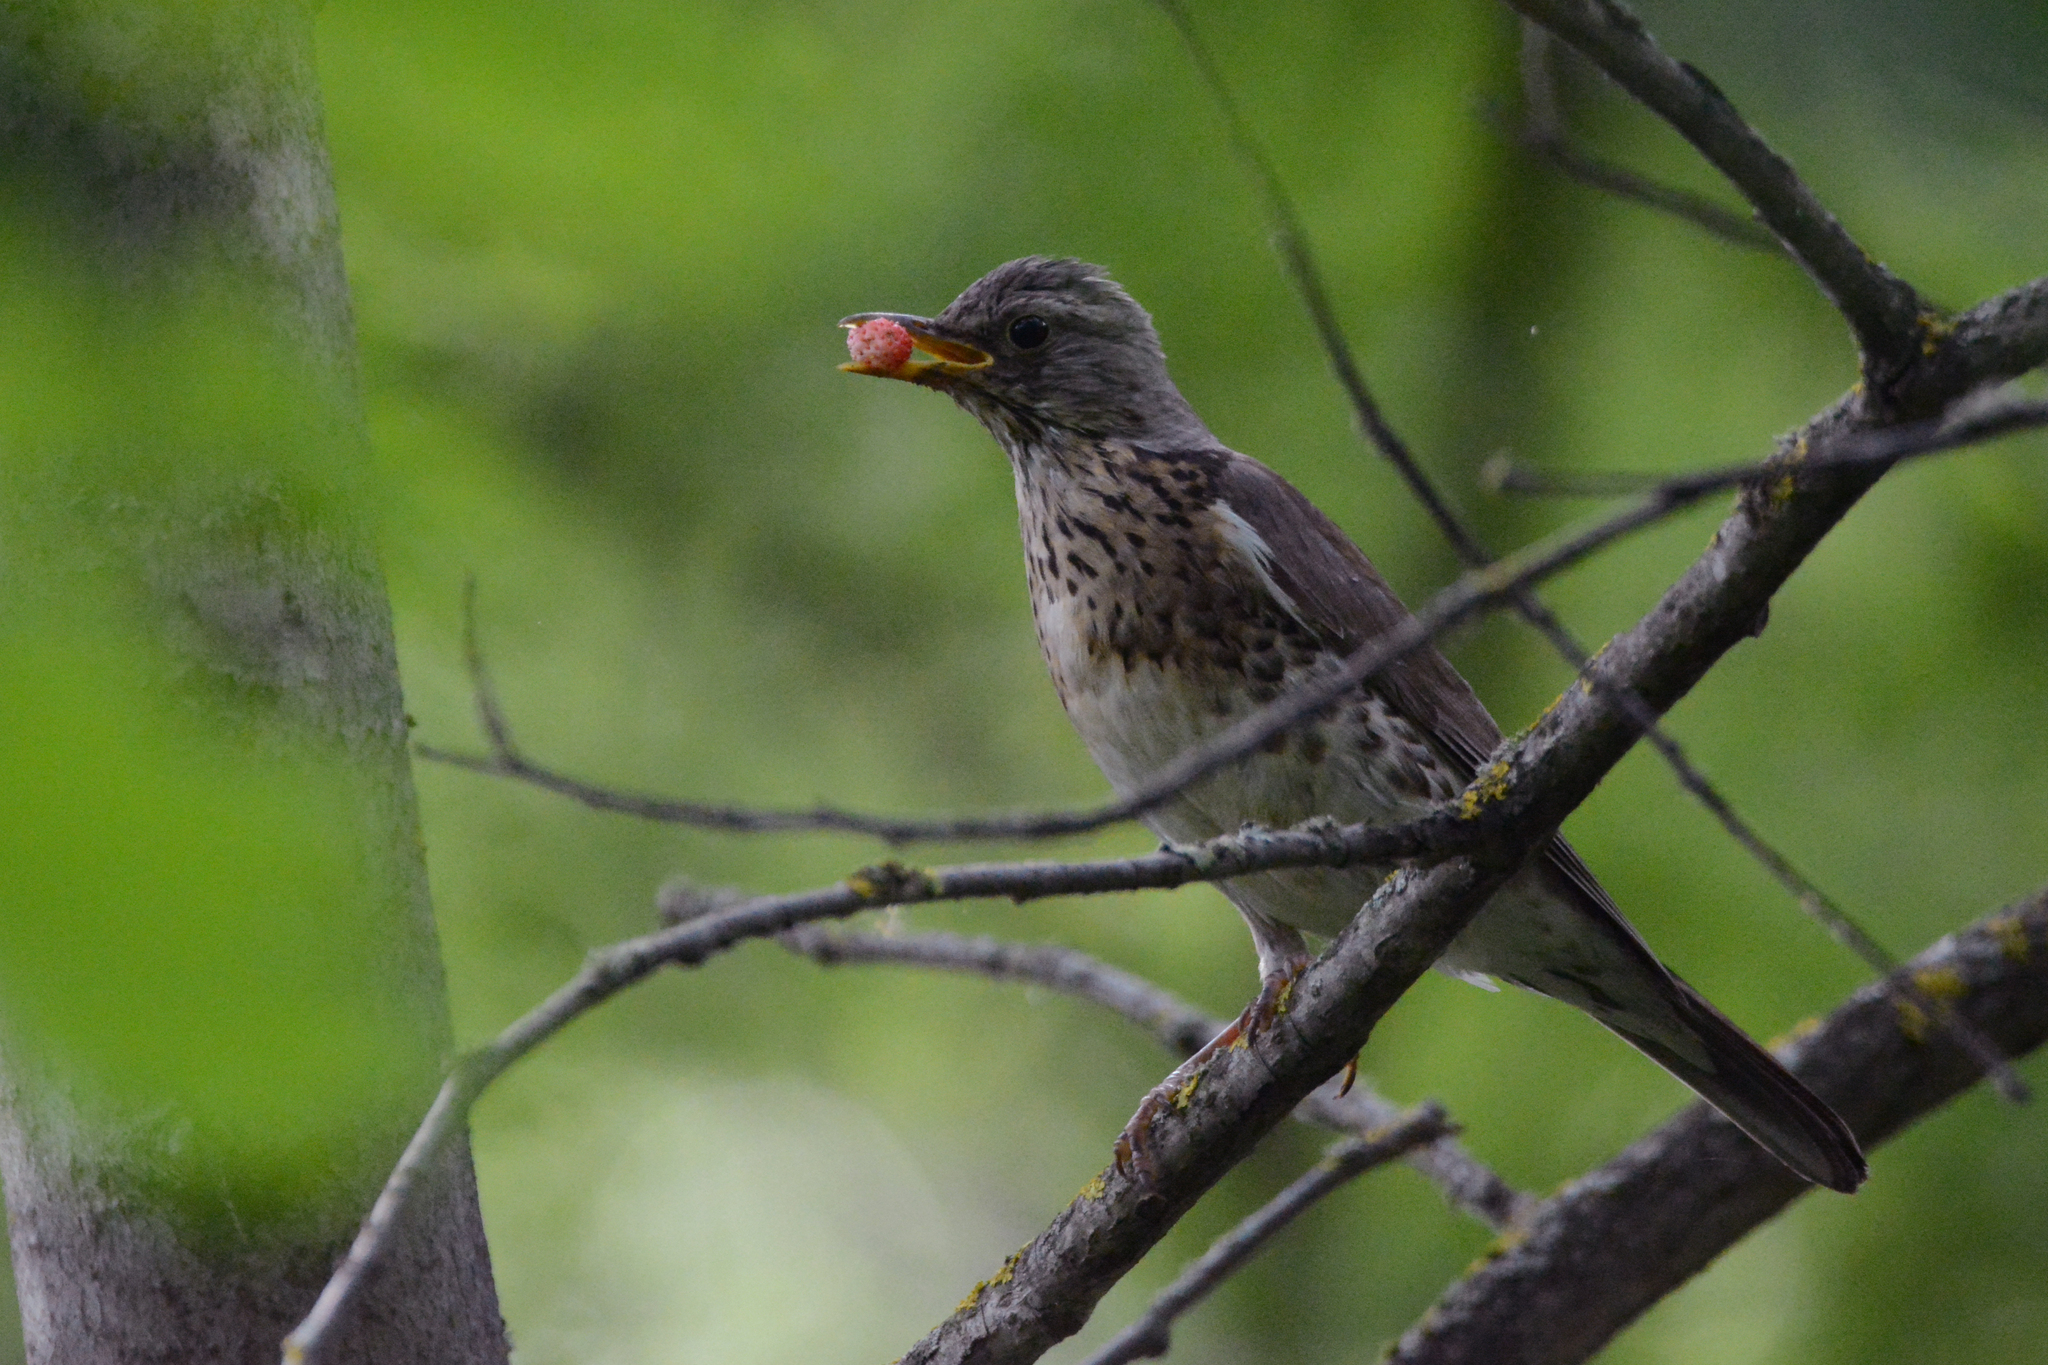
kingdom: Animalia
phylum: Chordata
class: Aves
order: Passeriformes
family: Turdidae
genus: Turdus
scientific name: Turdus pilaris
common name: Fieldfare
